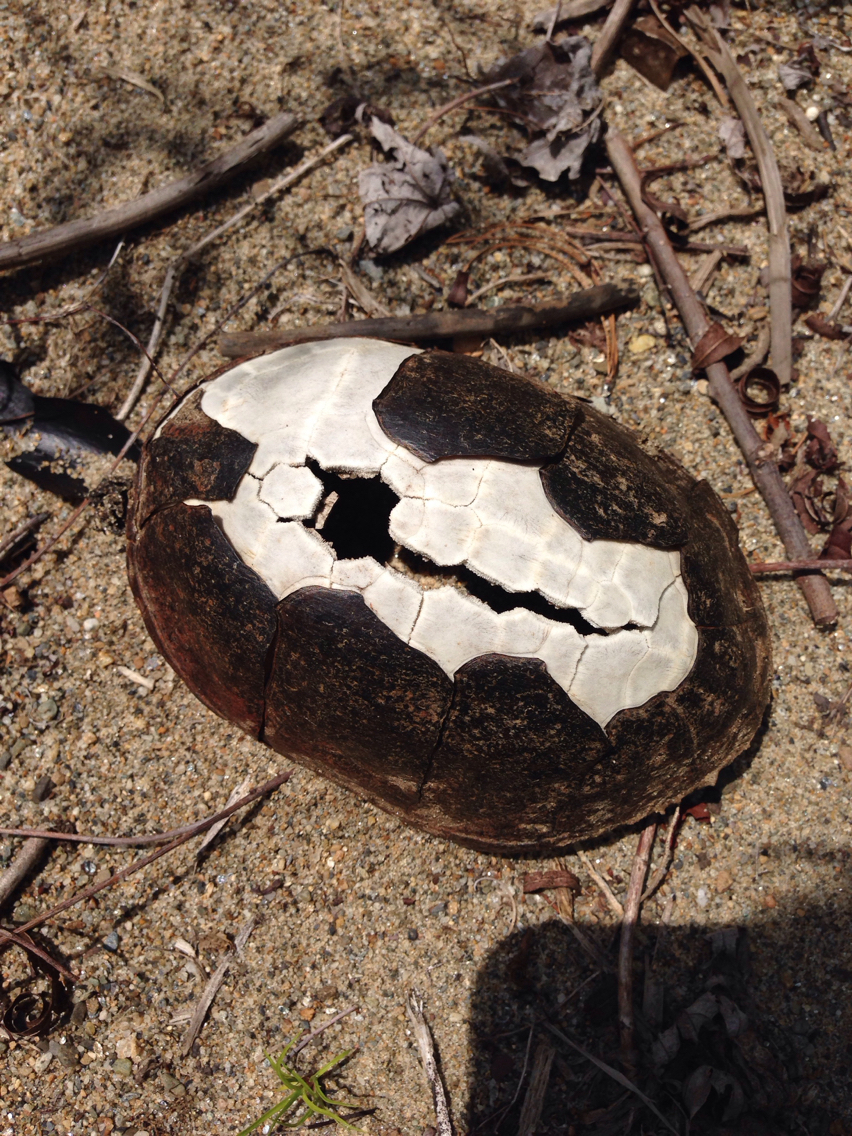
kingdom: Animalia
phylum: Chordata
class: Testudines
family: Kinosternidae
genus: Sternotherus
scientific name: Sternotherus odoratus
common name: Common musk turtle
